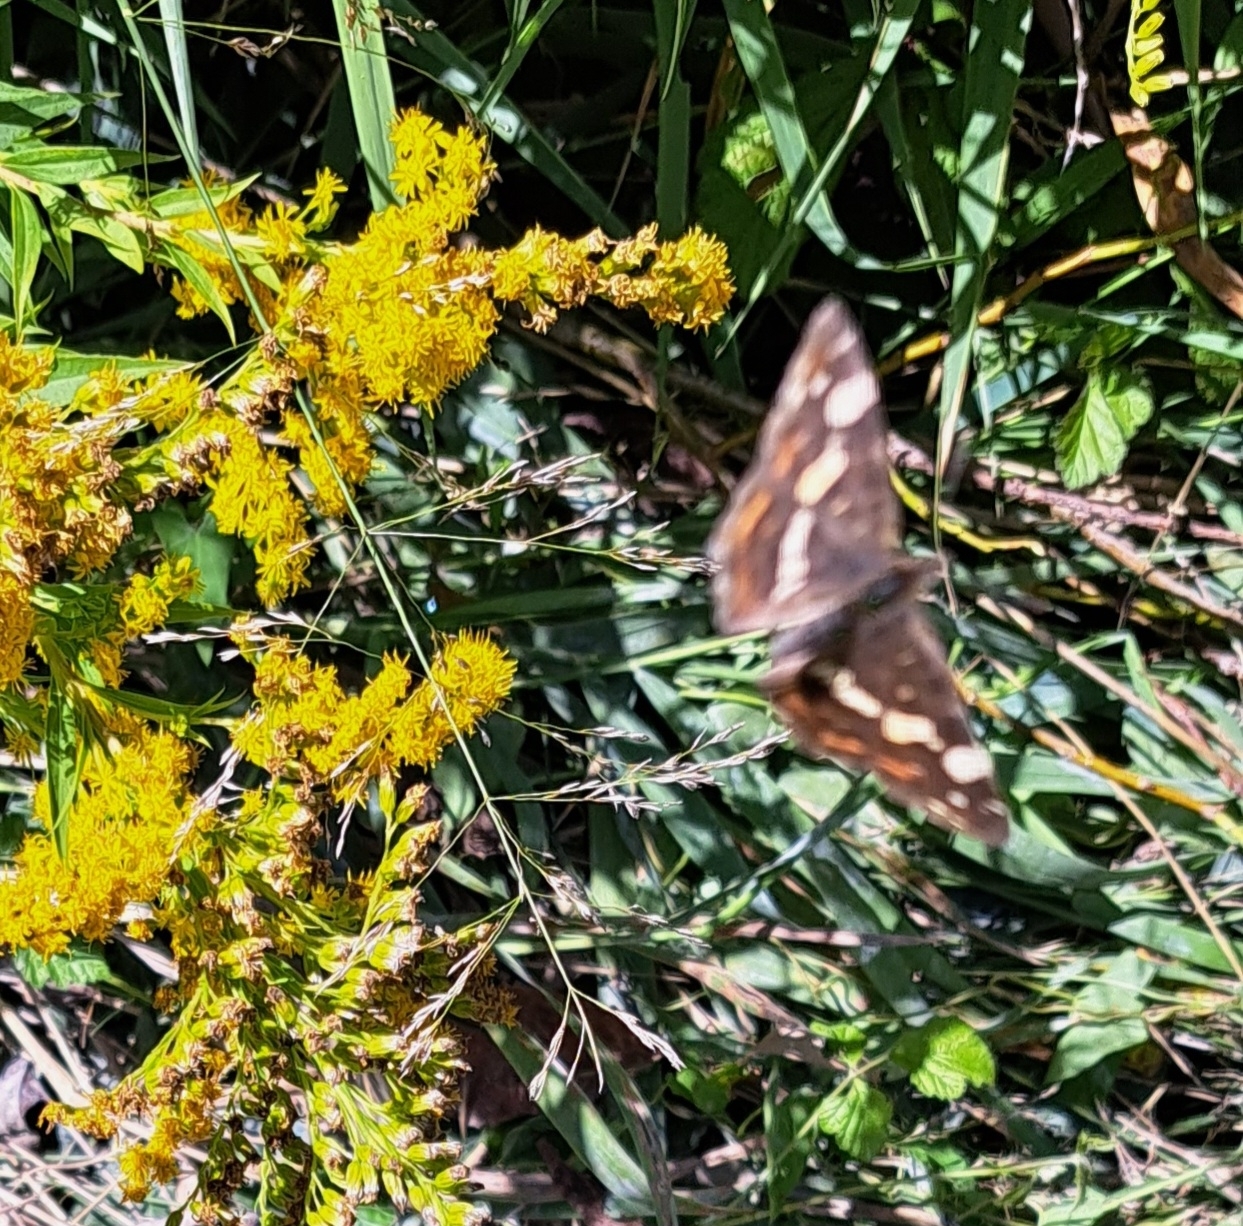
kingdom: Animalia
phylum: Arthropoda
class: Insecta
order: Lepidoptera
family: Nymphalidae
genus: Araschnia
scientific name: Araschnia levana
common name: Map butterfly
